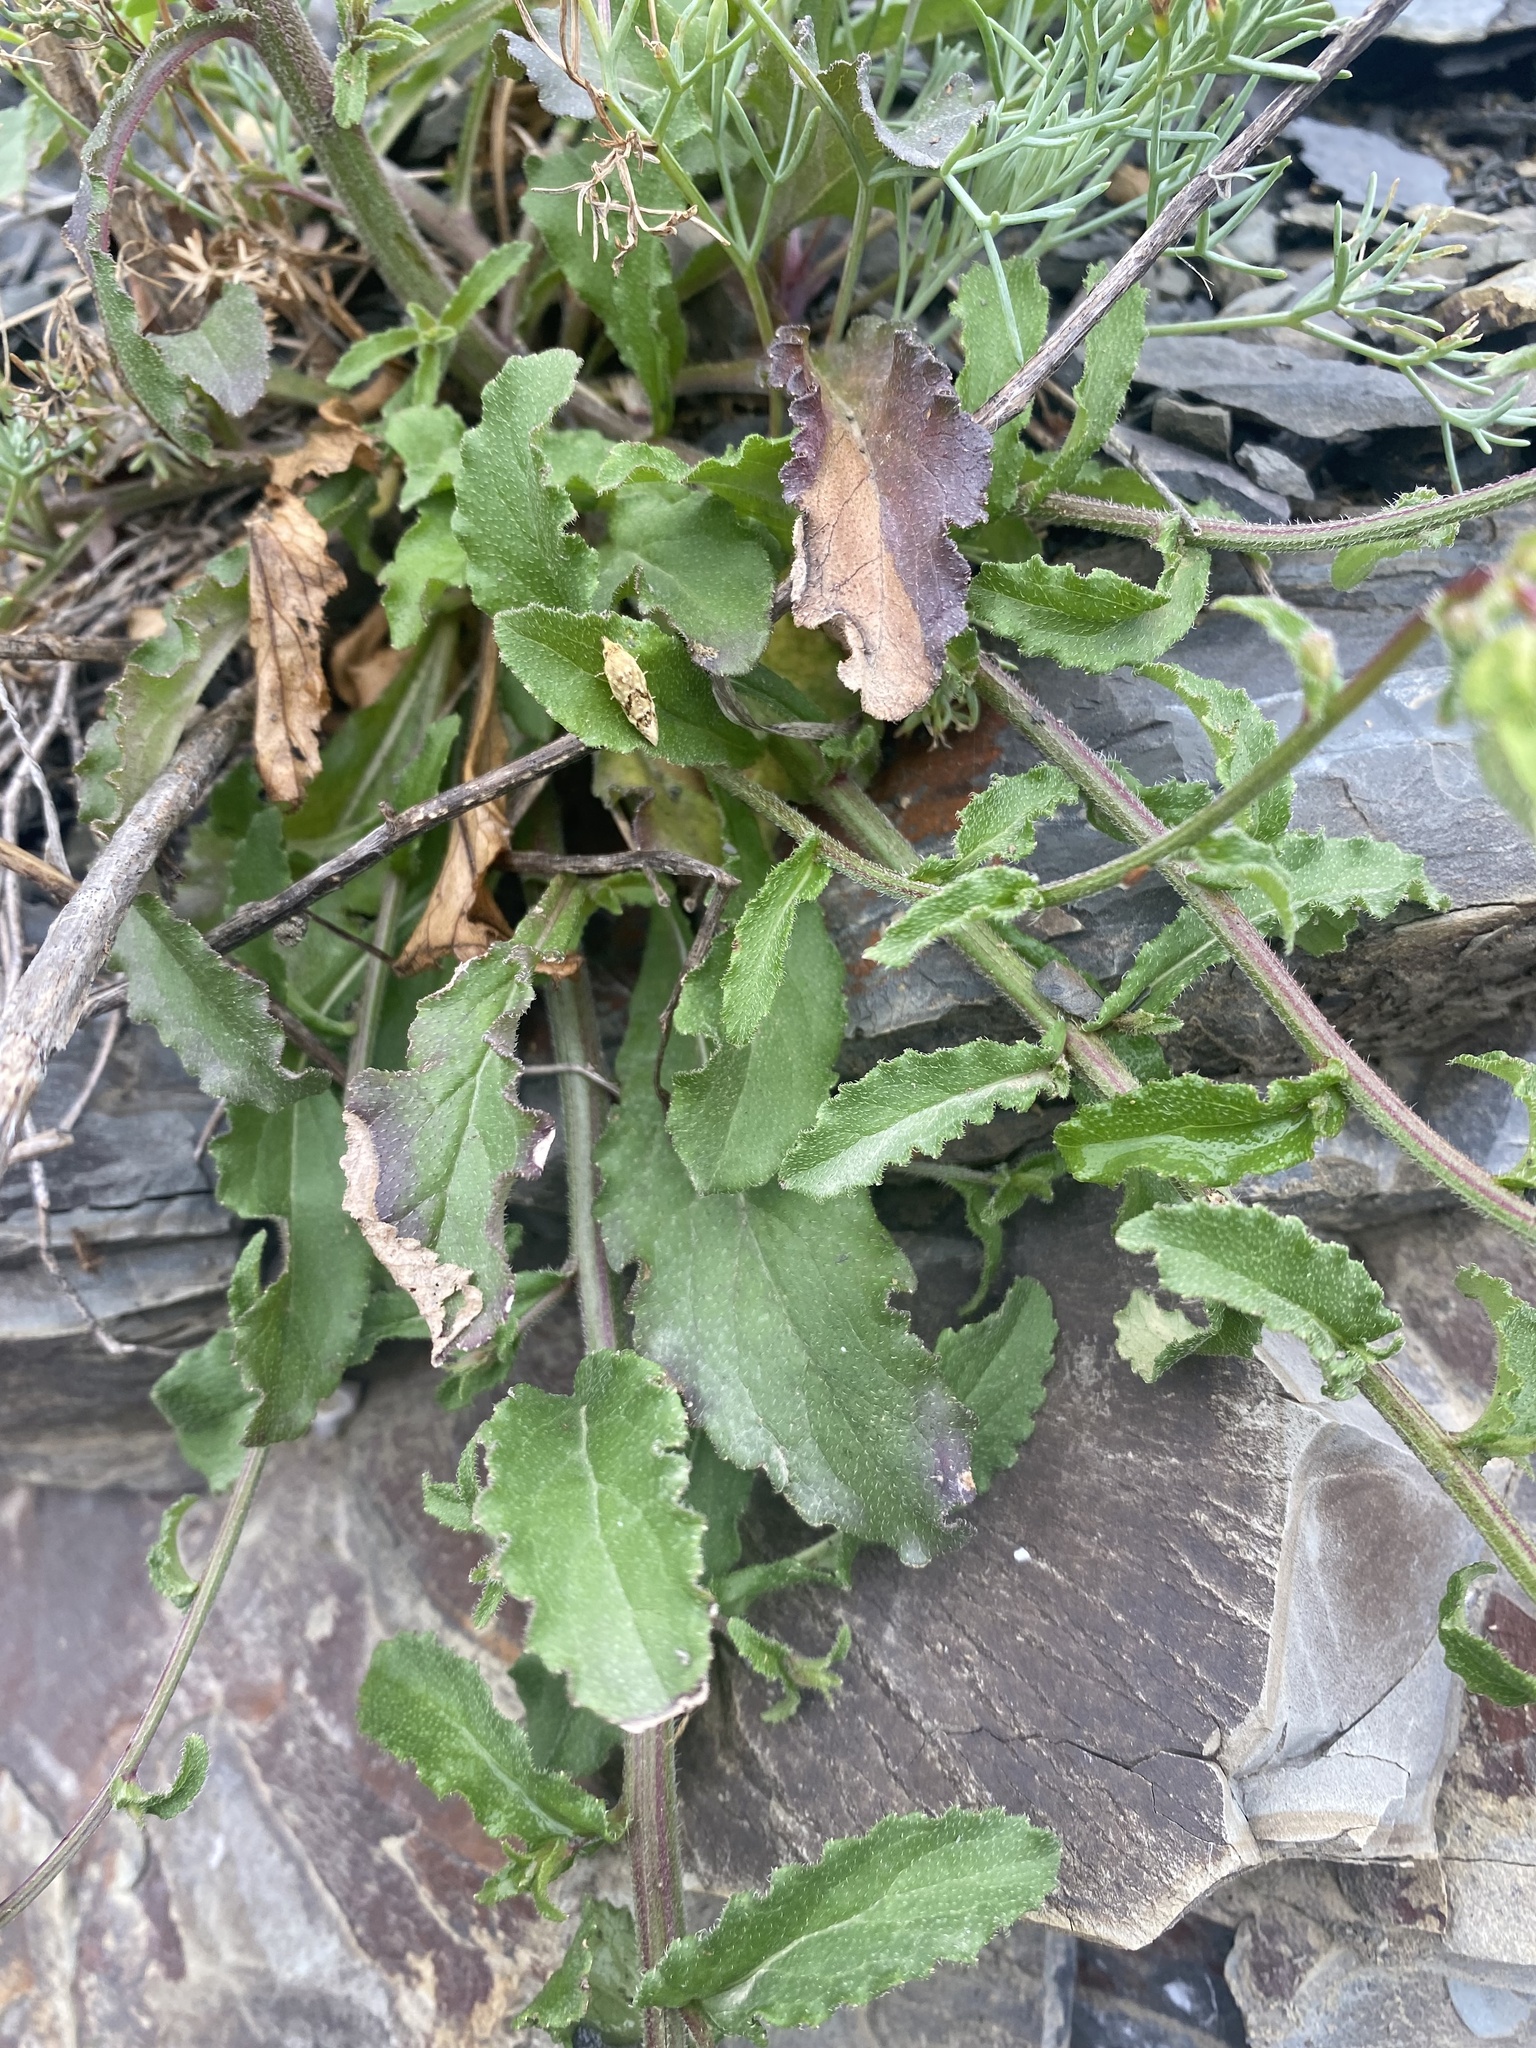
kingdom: Plantae
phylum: Tracheophyta
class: Magnoliopsida
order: Asterales
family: Campanulaceae
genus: Campanula
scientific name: Campanula komarovii
